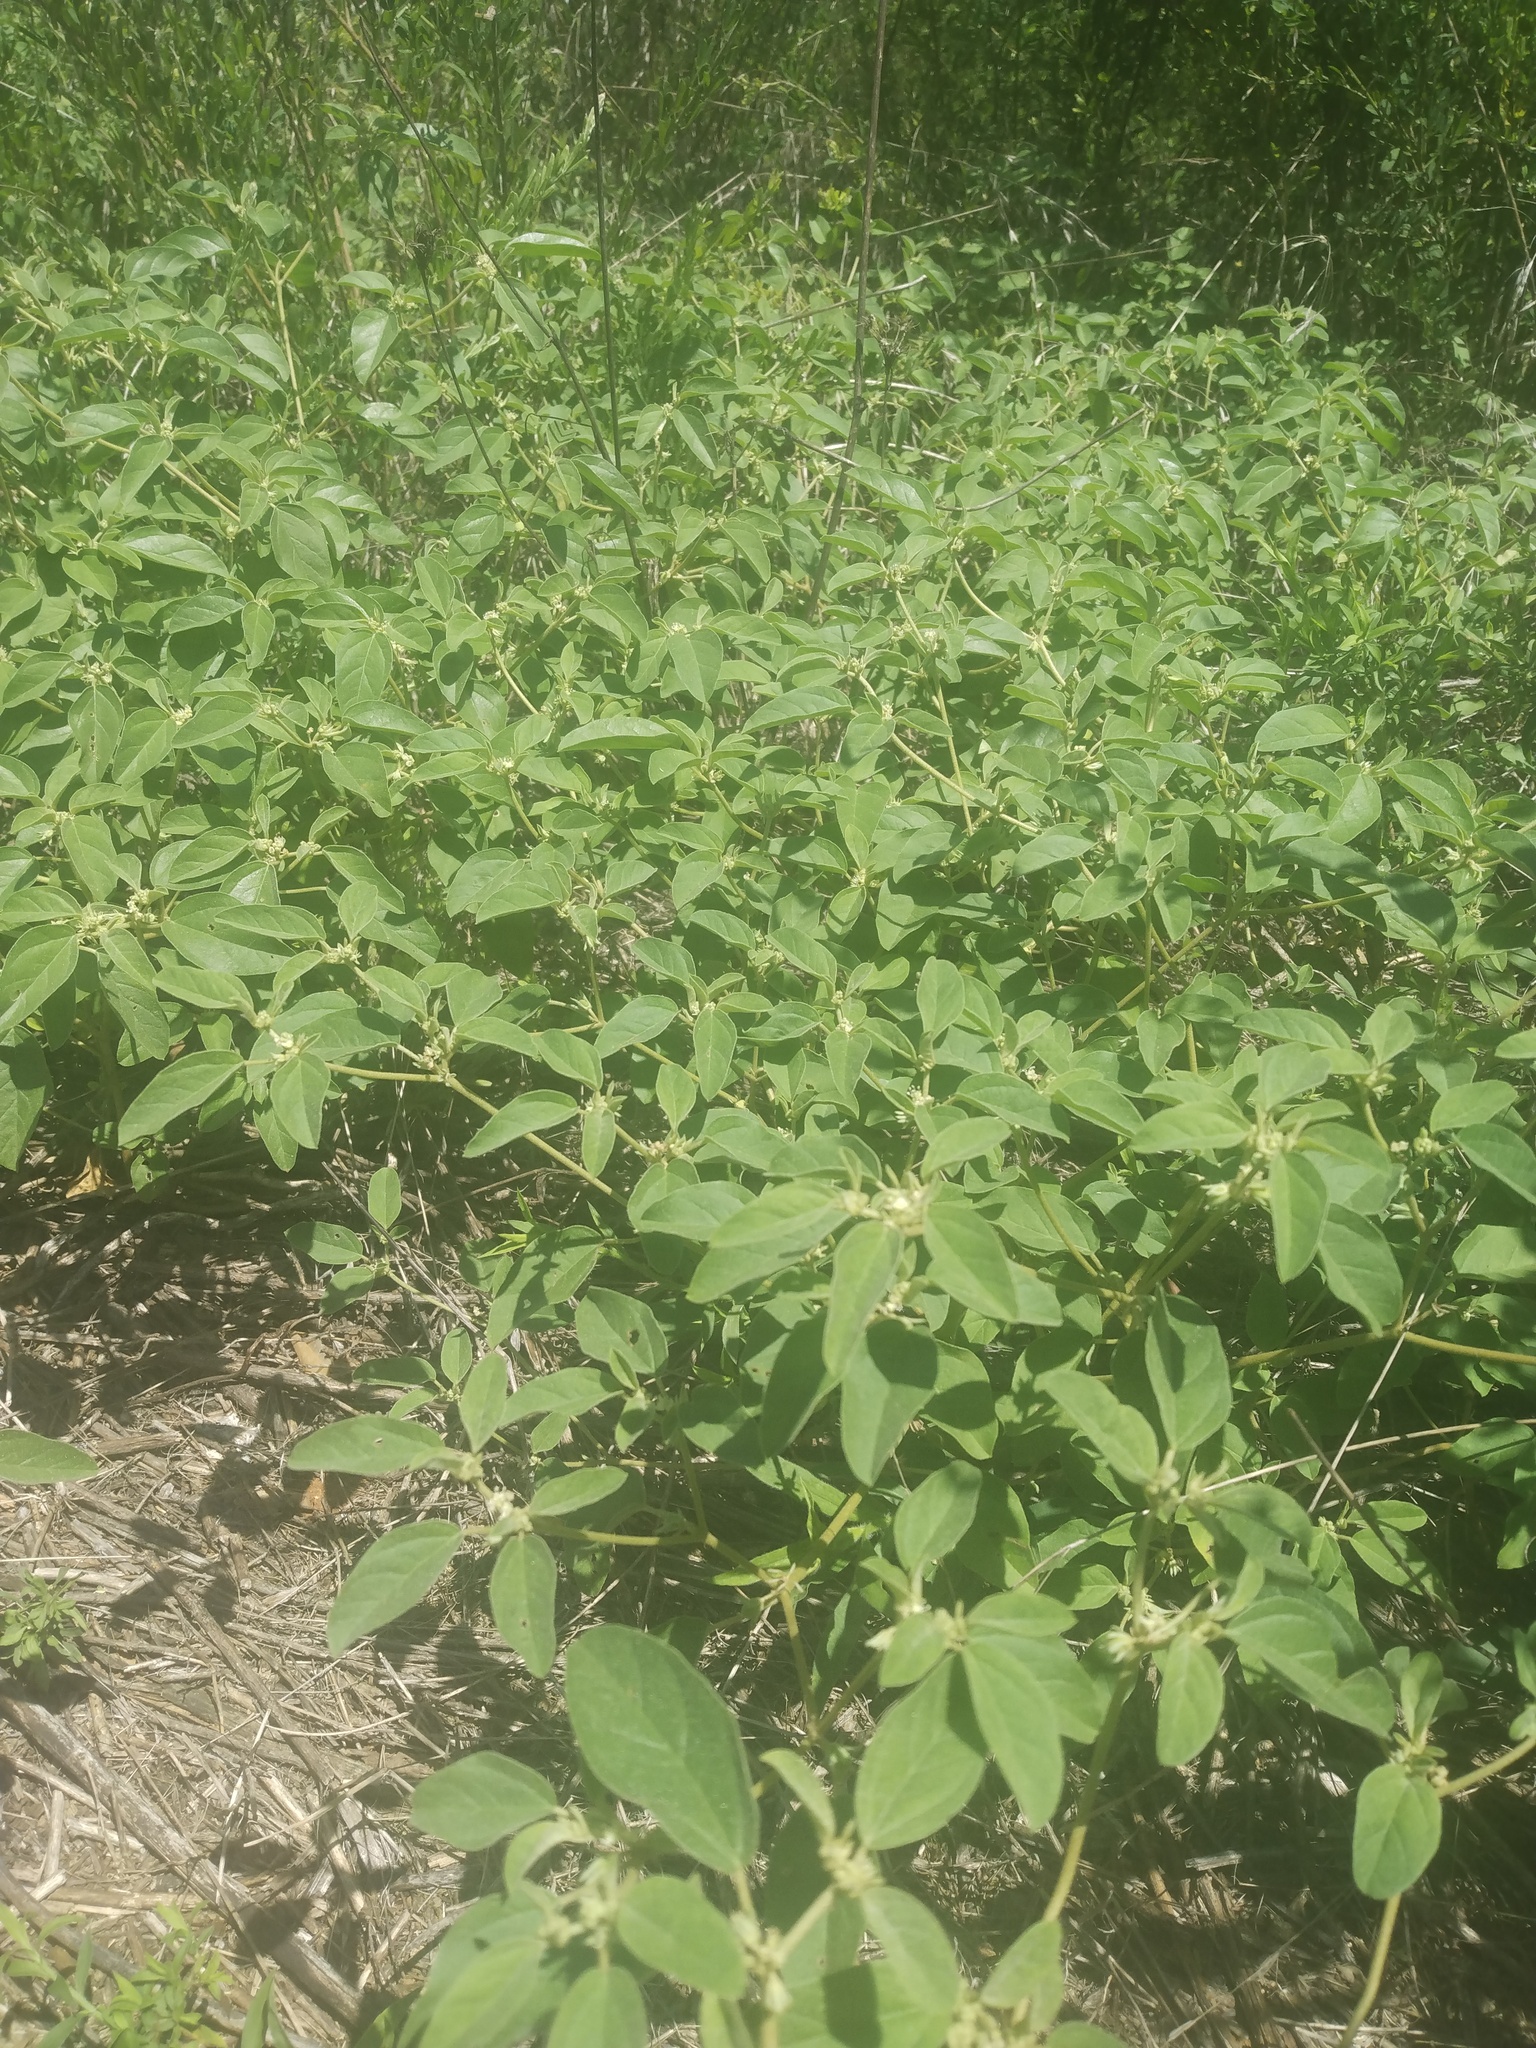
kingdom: Plantae
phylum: Tracheophyta
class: Magnoliopsida
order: Malpighiales
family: Euphorbiaceae
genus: Croton
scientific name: Croton monanthogynus
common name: One-seed croton
